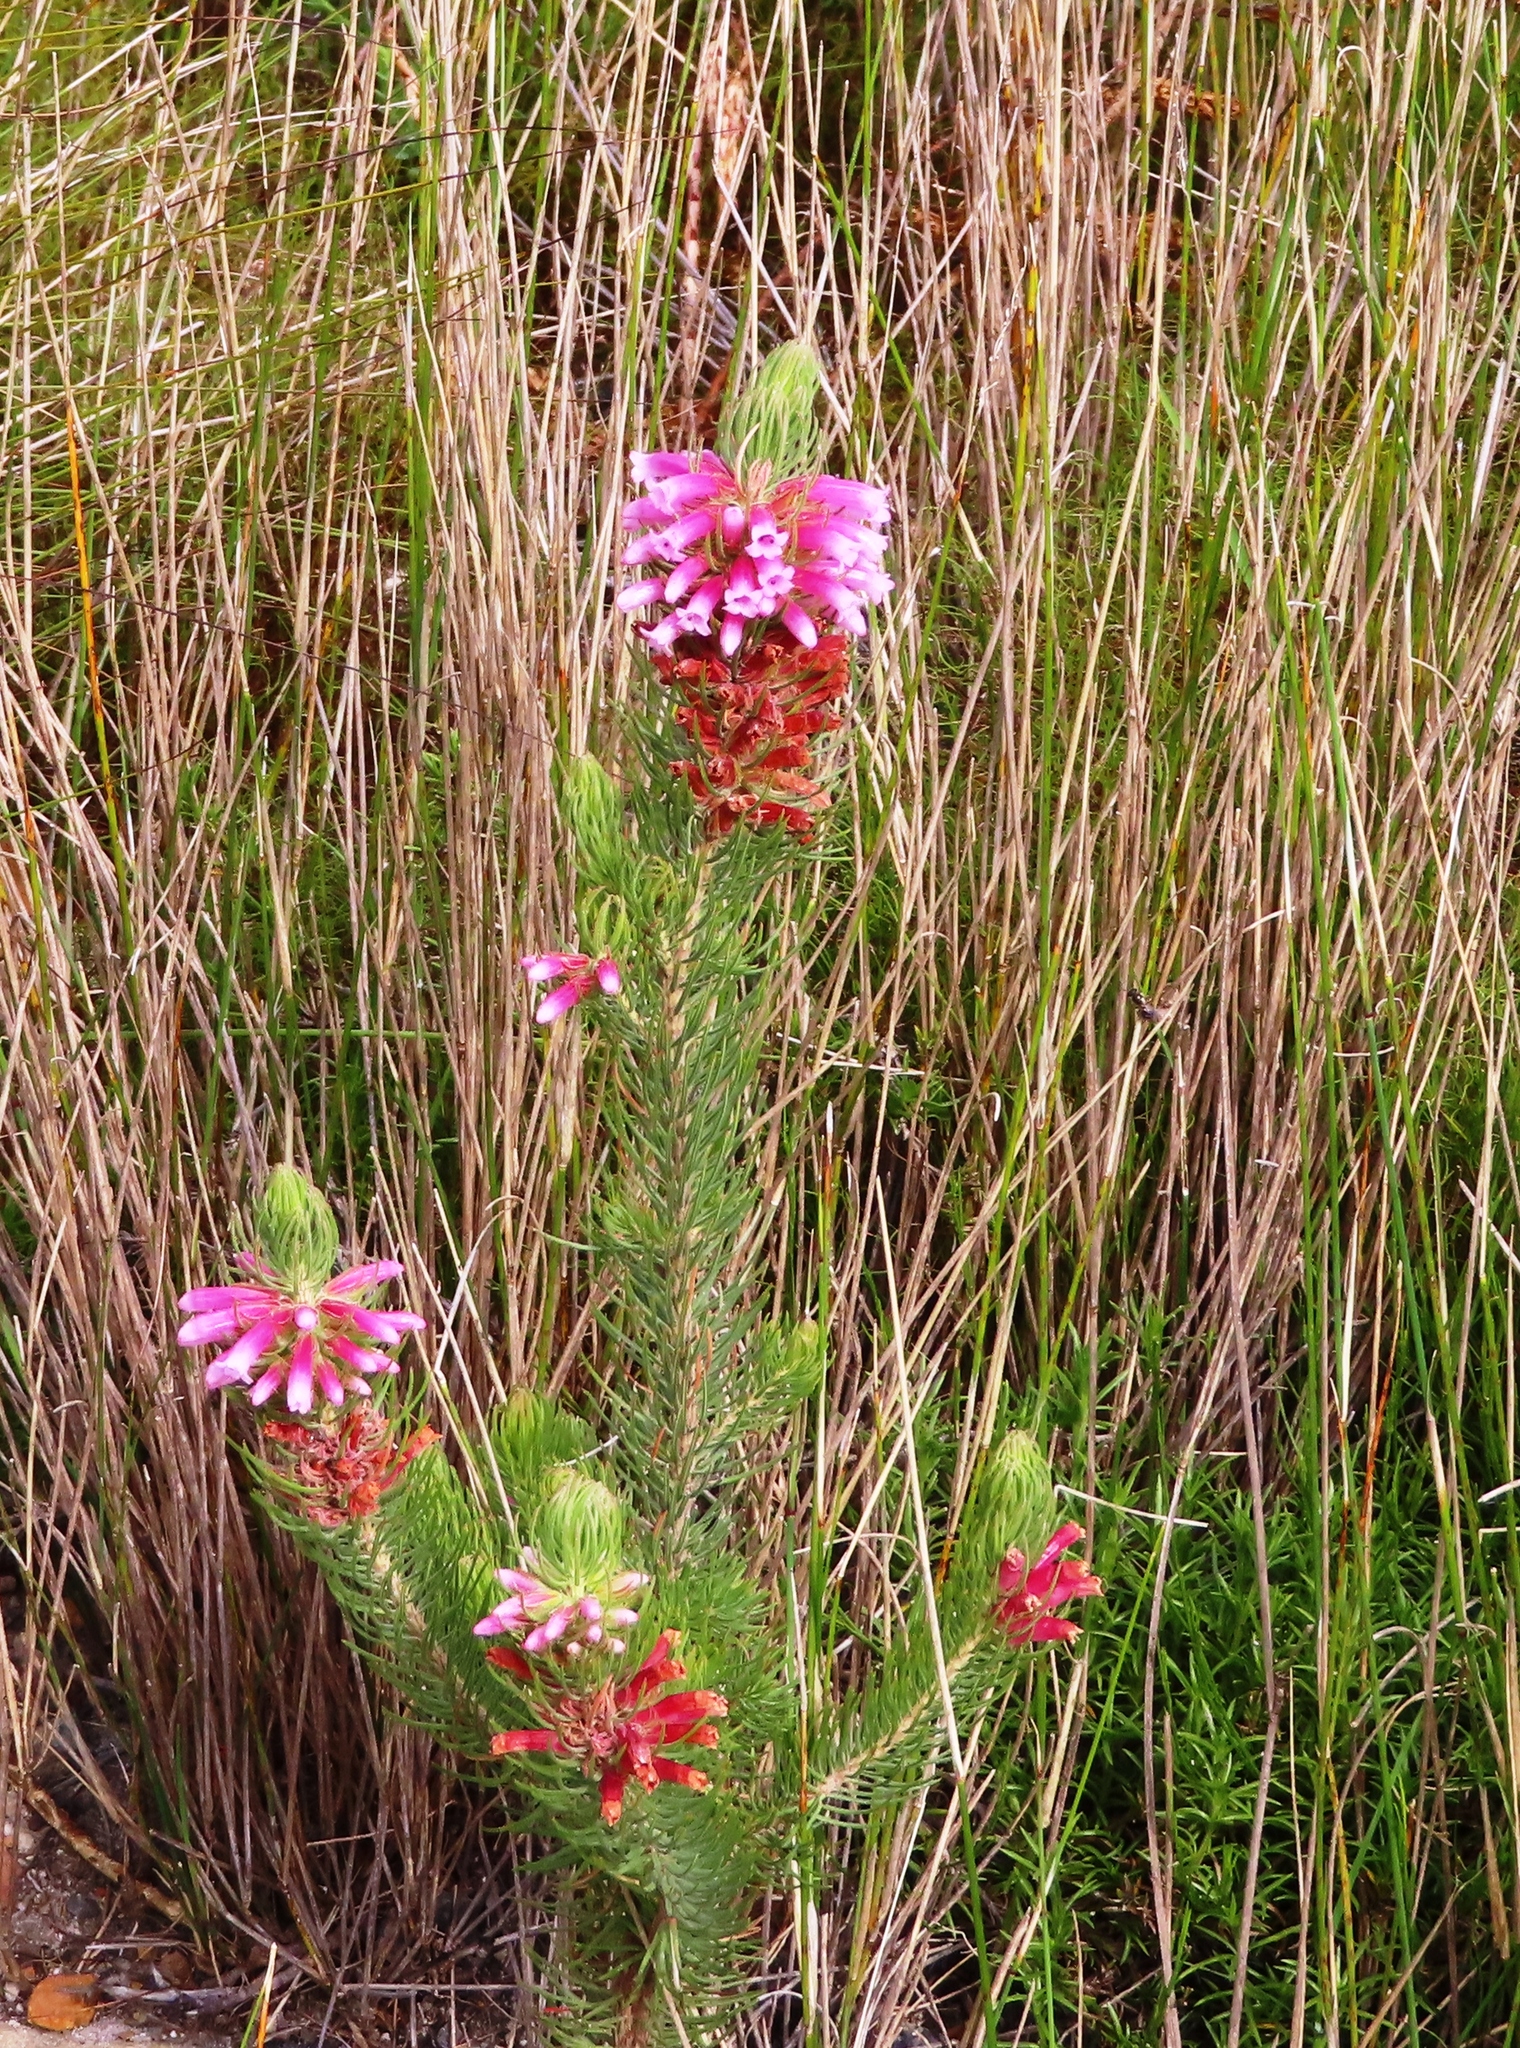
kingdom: Plantae
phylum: Tracheophyta
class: Magnoliopsida
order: Ericales
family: Ericaceae
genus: Erica
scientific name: Erica viscaria
